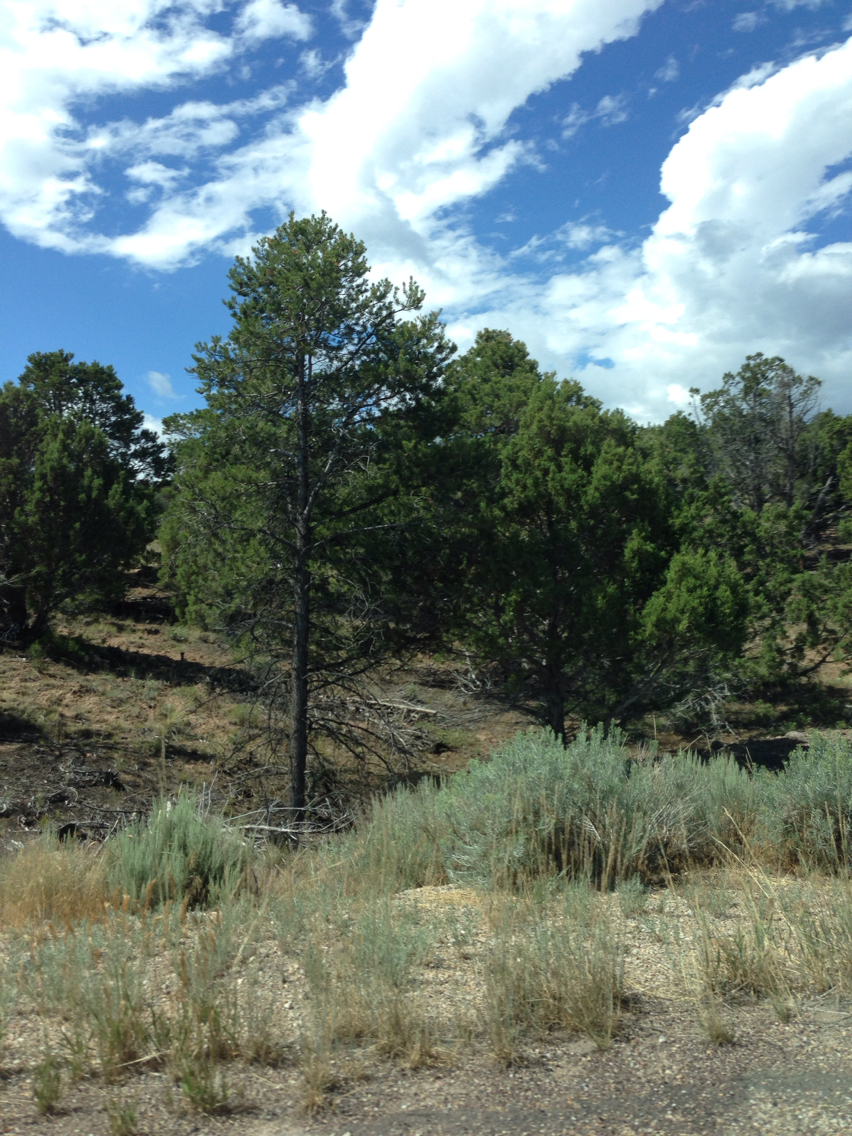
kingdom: Plantae
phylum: Tracheophyta
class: Magnoliopsida
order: Asterales
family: Asteraceae
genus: Artemisia
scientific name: Artemisia tridentata
